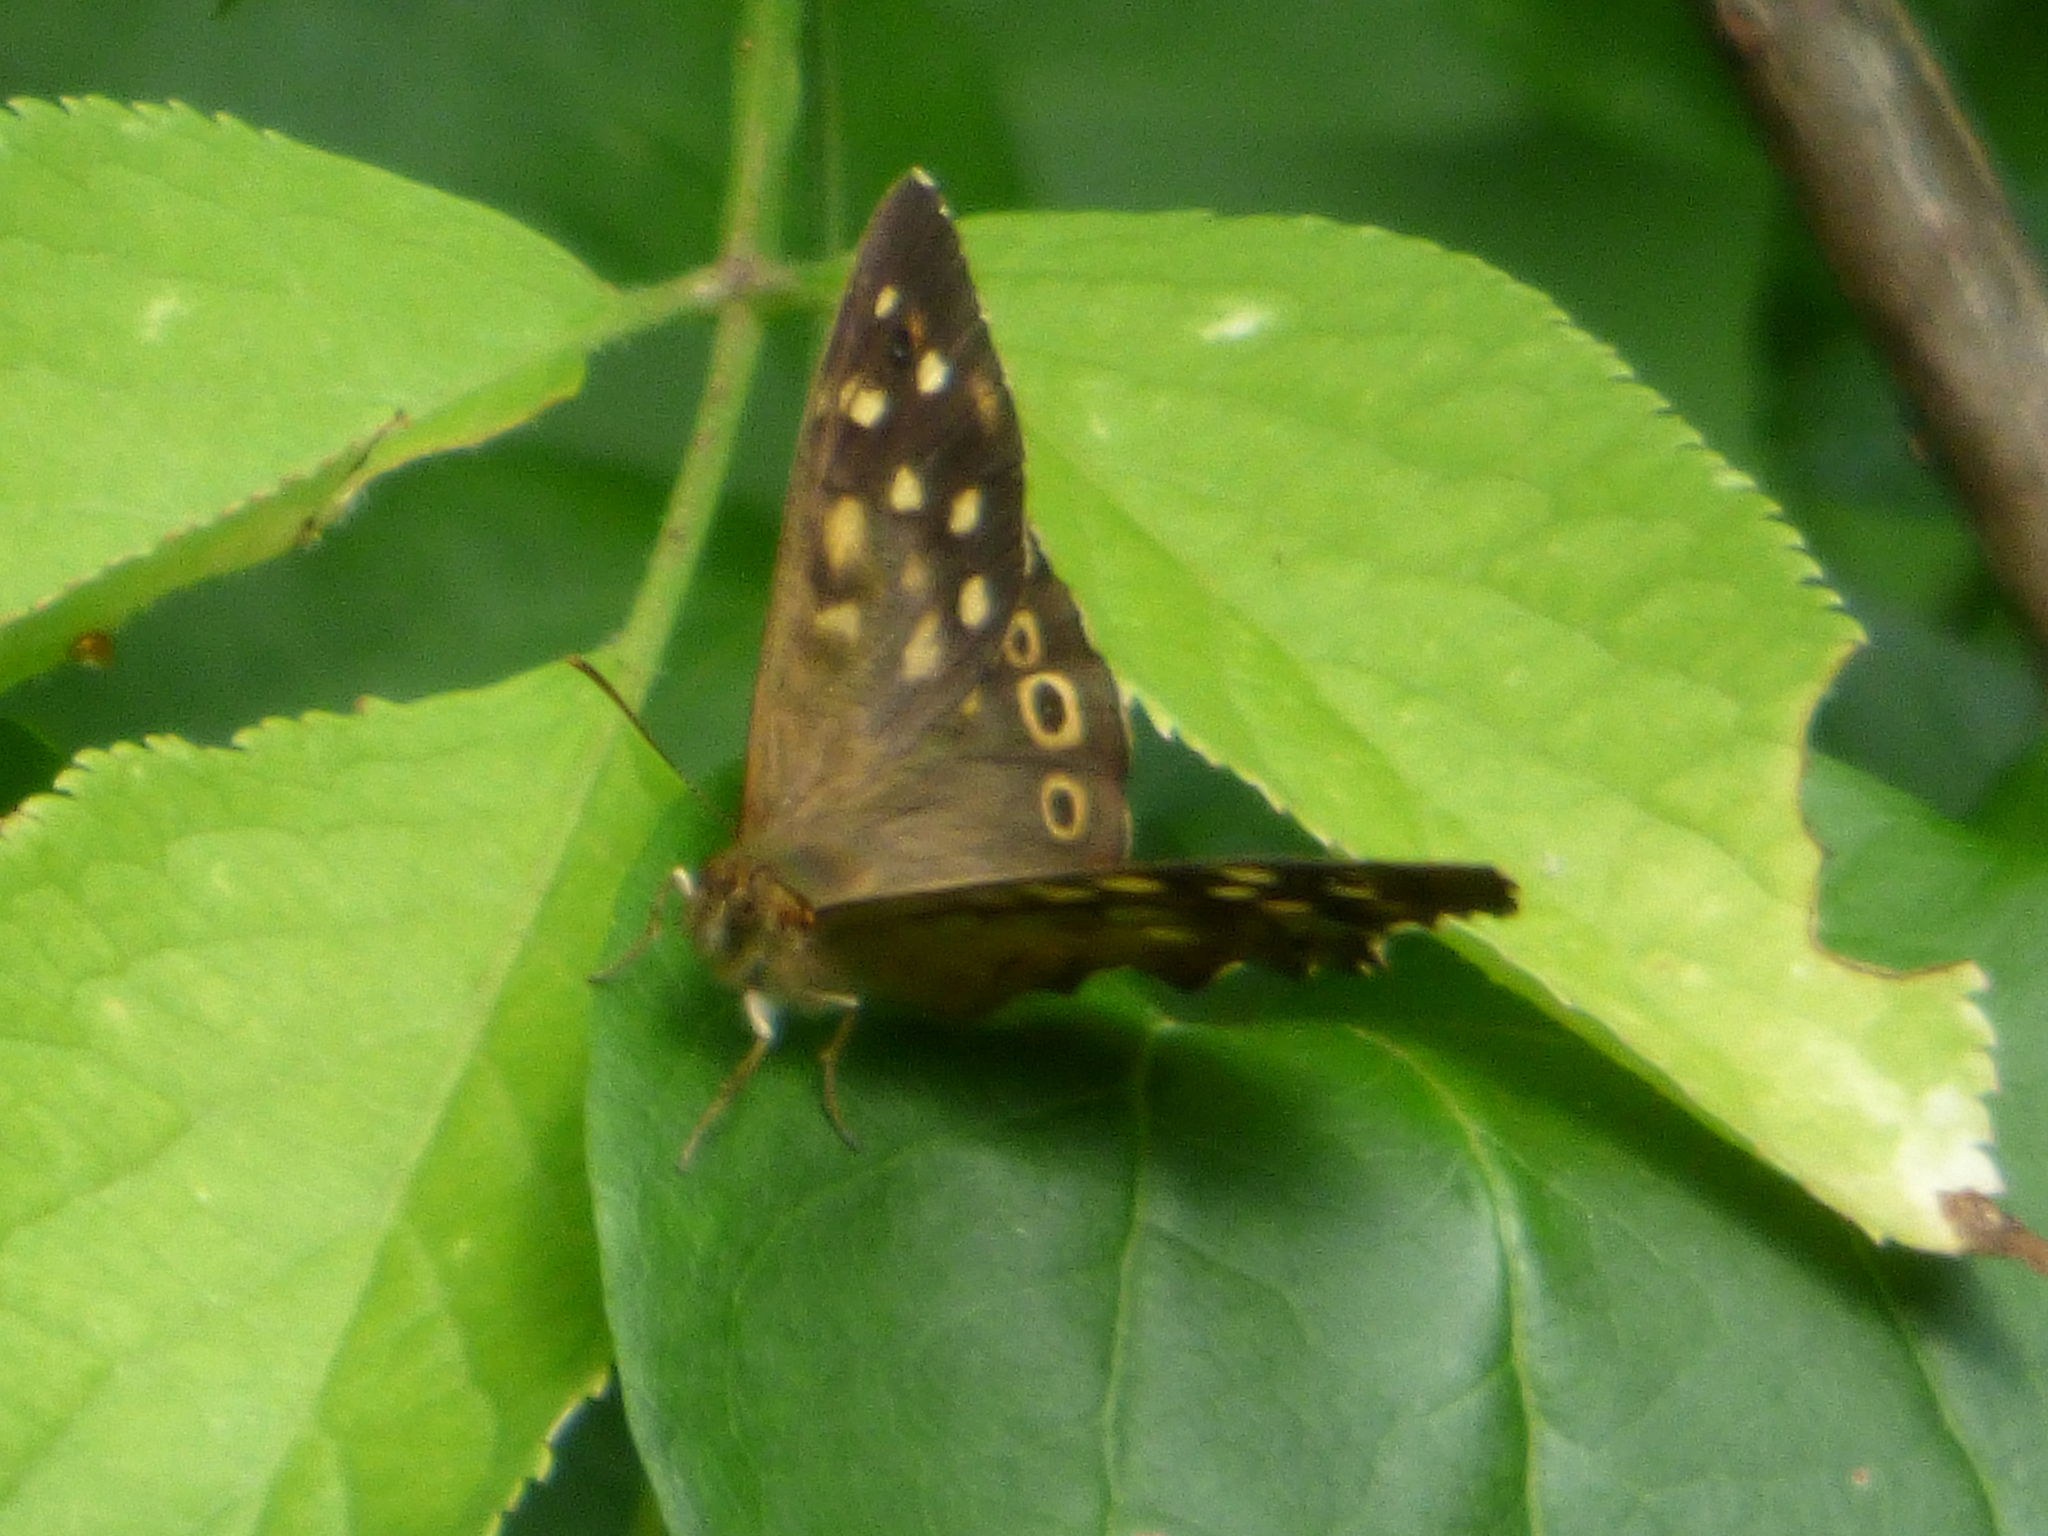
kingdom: Animalia
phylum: Arthropoda
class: Insecta
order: Lepidoptera
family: Nymphalidae
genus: Pararge
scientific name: Pararge aegeria
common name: Speckled wood
